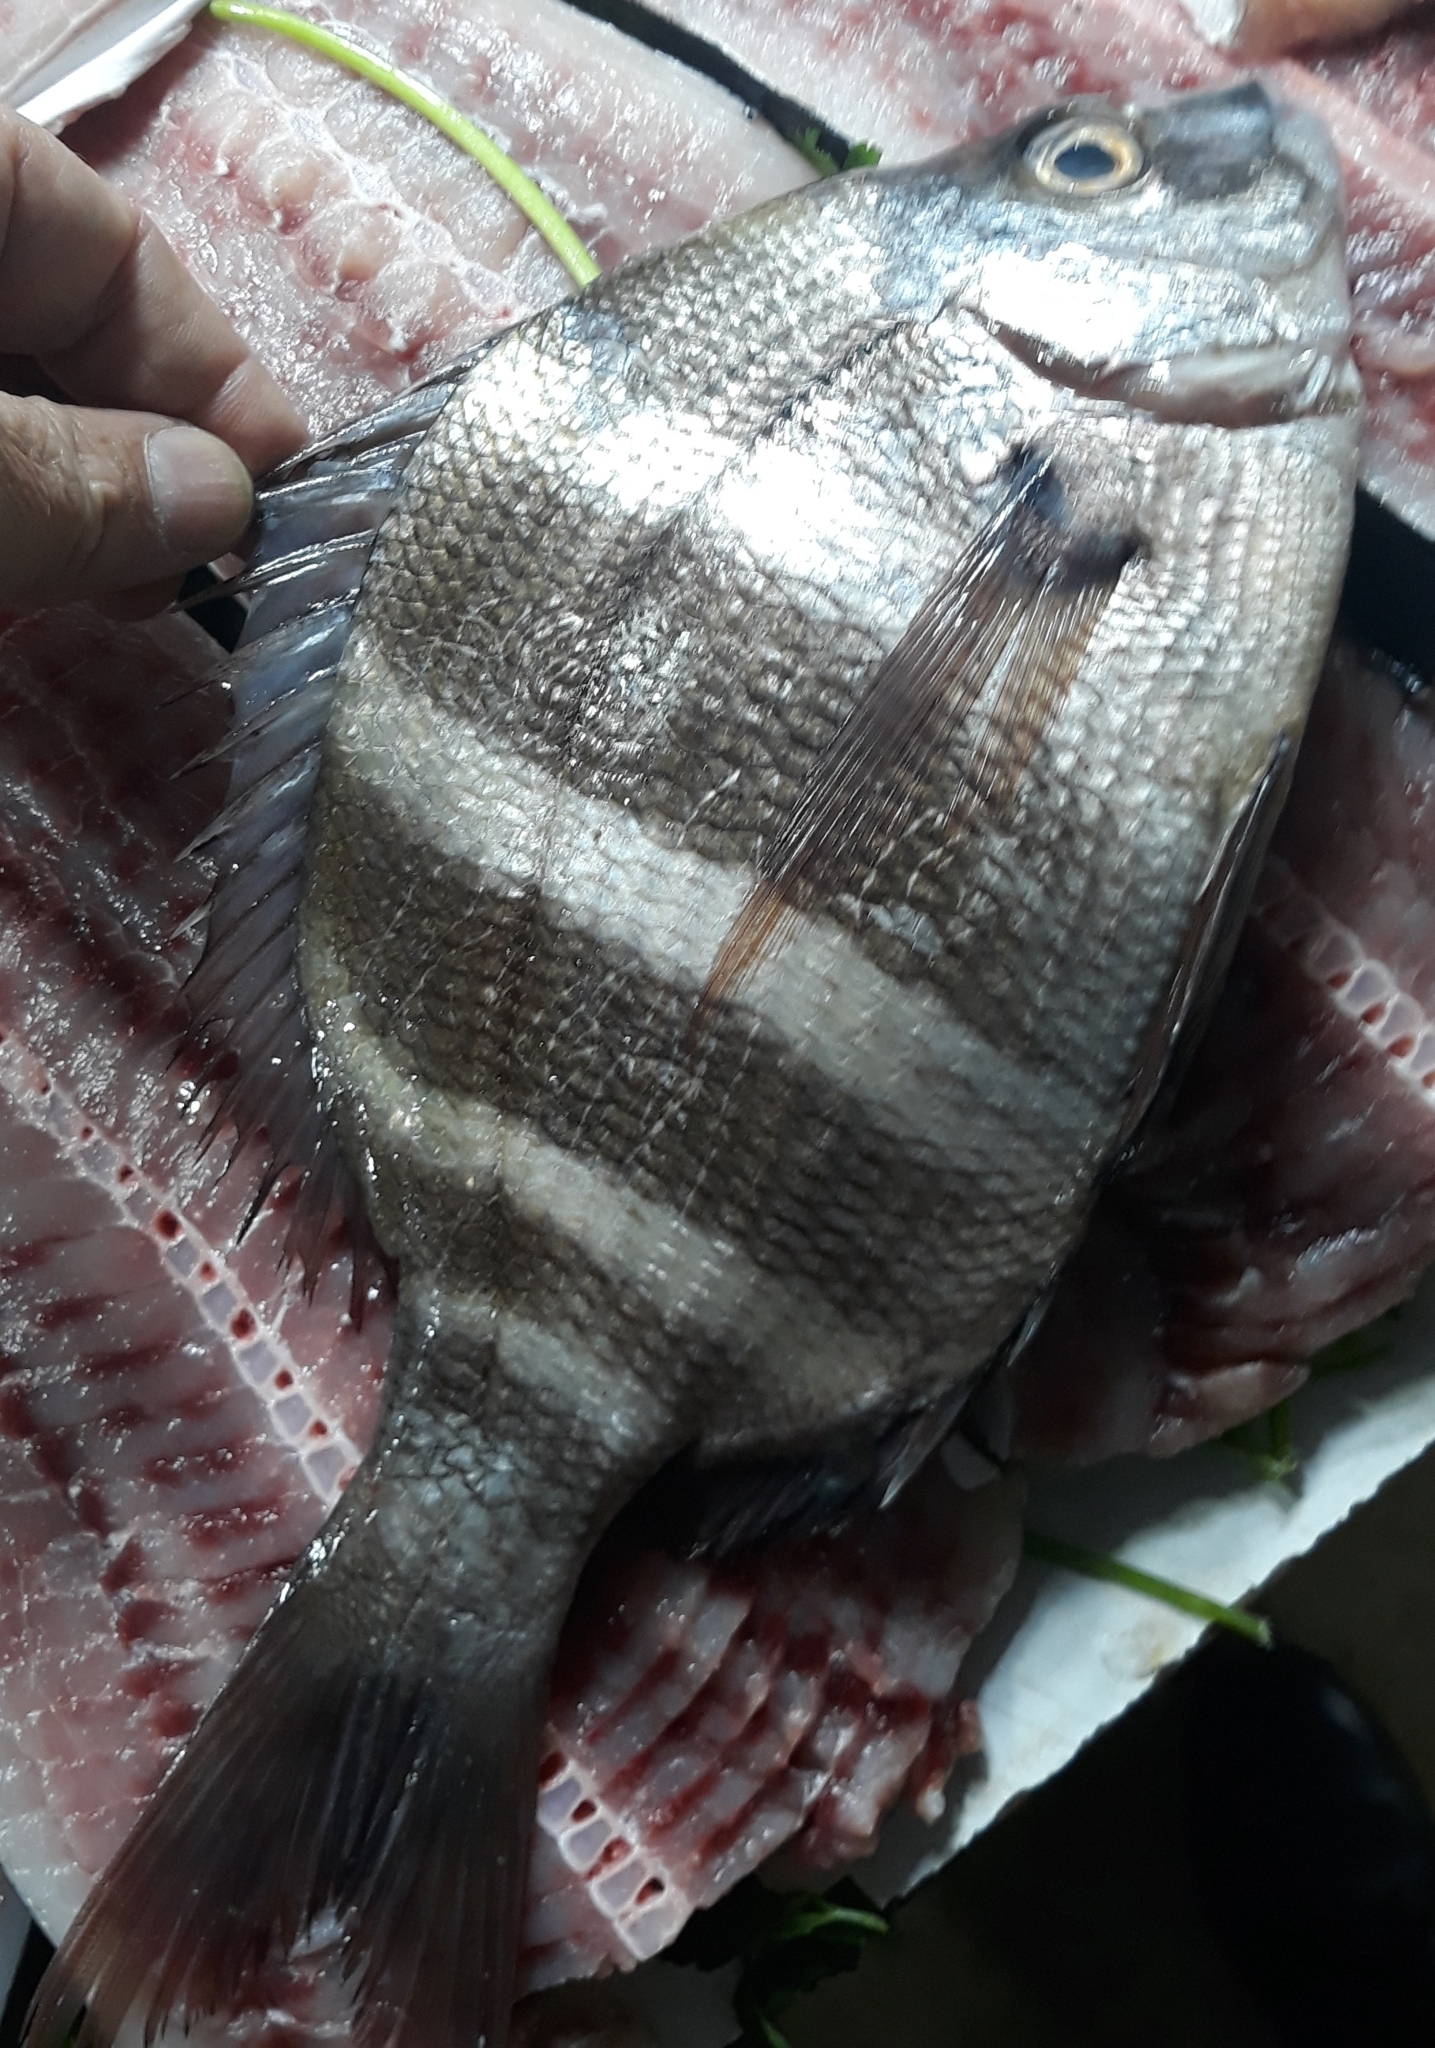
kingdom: Animalia
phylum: Chordata
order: Perciformes
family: Sparidae
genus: Diplodus
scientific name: Diplodus cervinus
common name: Oman porgy
